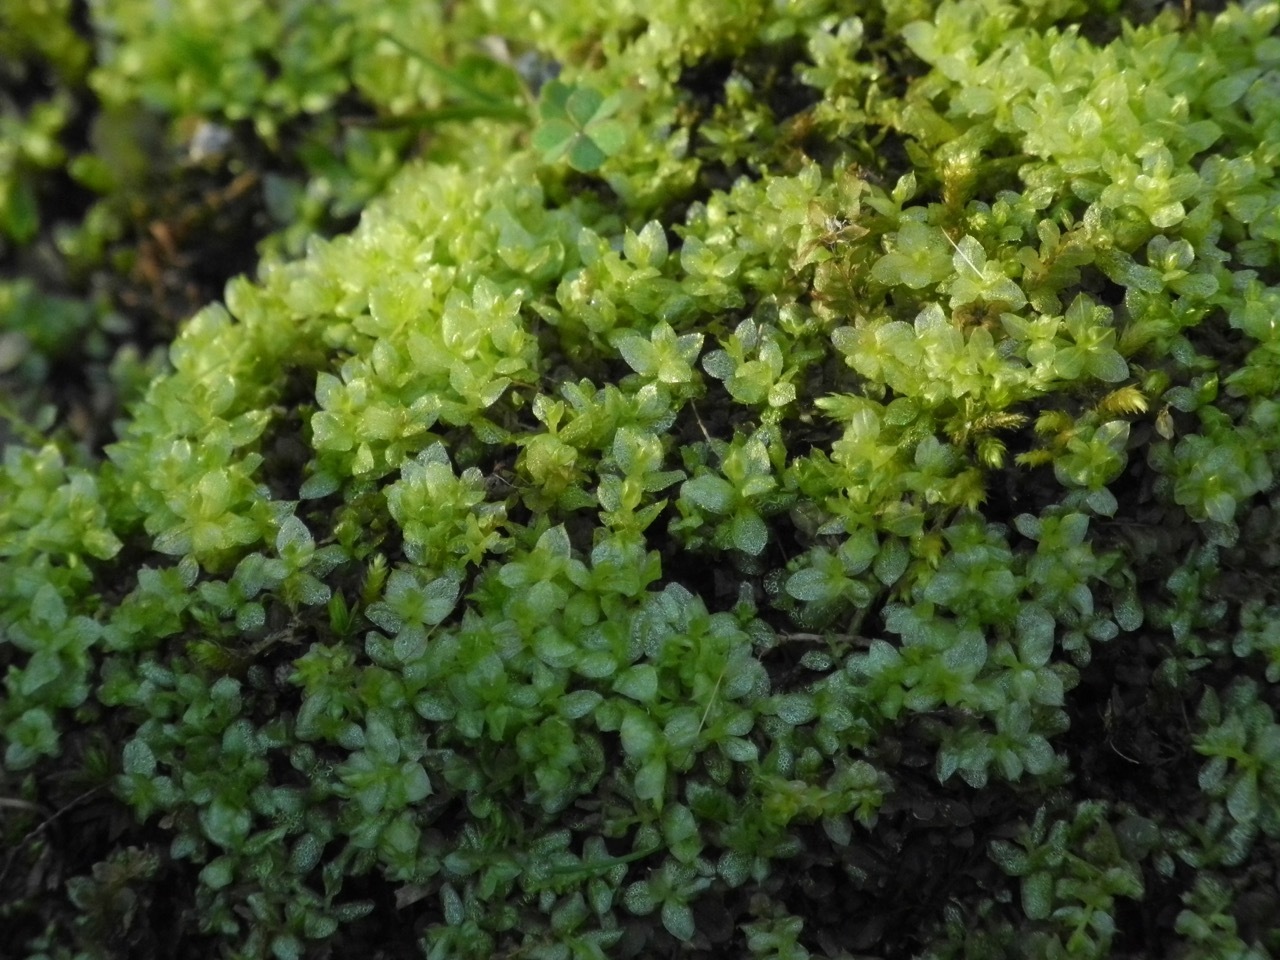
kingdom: Plantae
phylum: Bryophyta
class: Bryopsida
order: Bryales
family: Mniaceae
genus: Plagiomnium
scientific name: Plagiomnium cuspidatum
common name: Woodsy leafy moss
